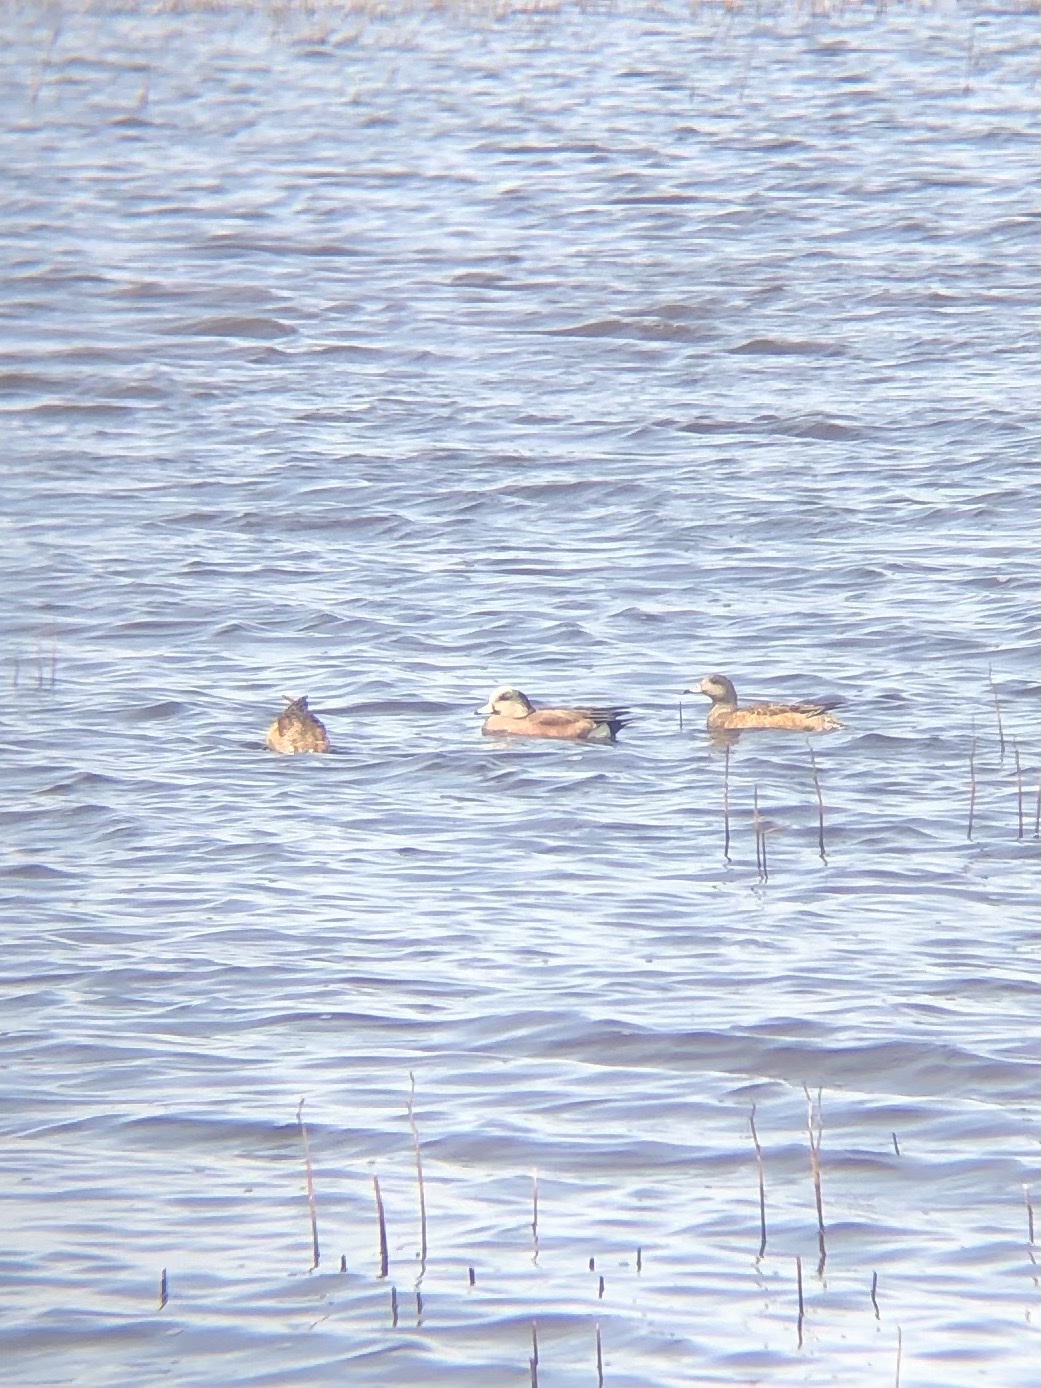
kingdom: Animalia
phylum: Chordata
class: Aves
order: Anseriformes
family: Anatidae
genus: Mareca
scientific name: Mareca americana
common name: American wigeon
